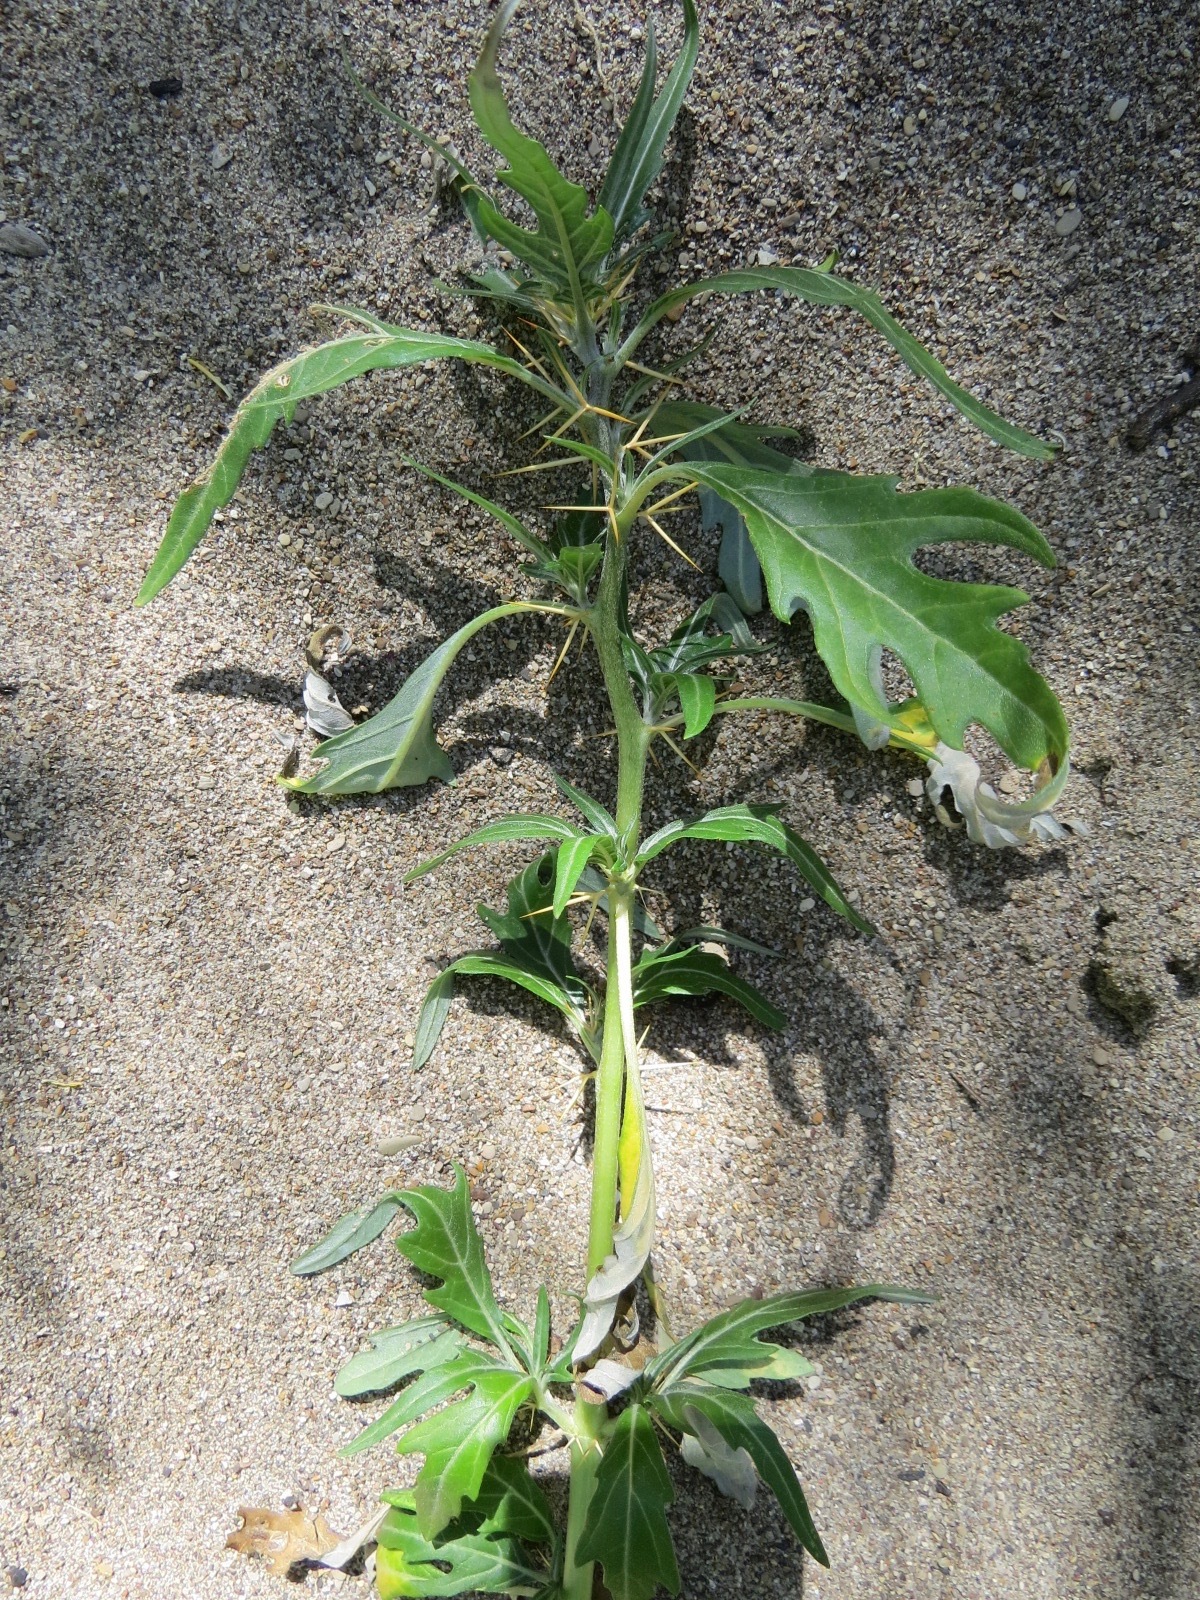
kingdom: Plantae
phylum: Tracheophyta
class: Magnoliopsida
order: Asterales
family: Asteraceae
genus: Xanthium
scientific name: Xanthium spinosum
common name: Spiny cocklebur
